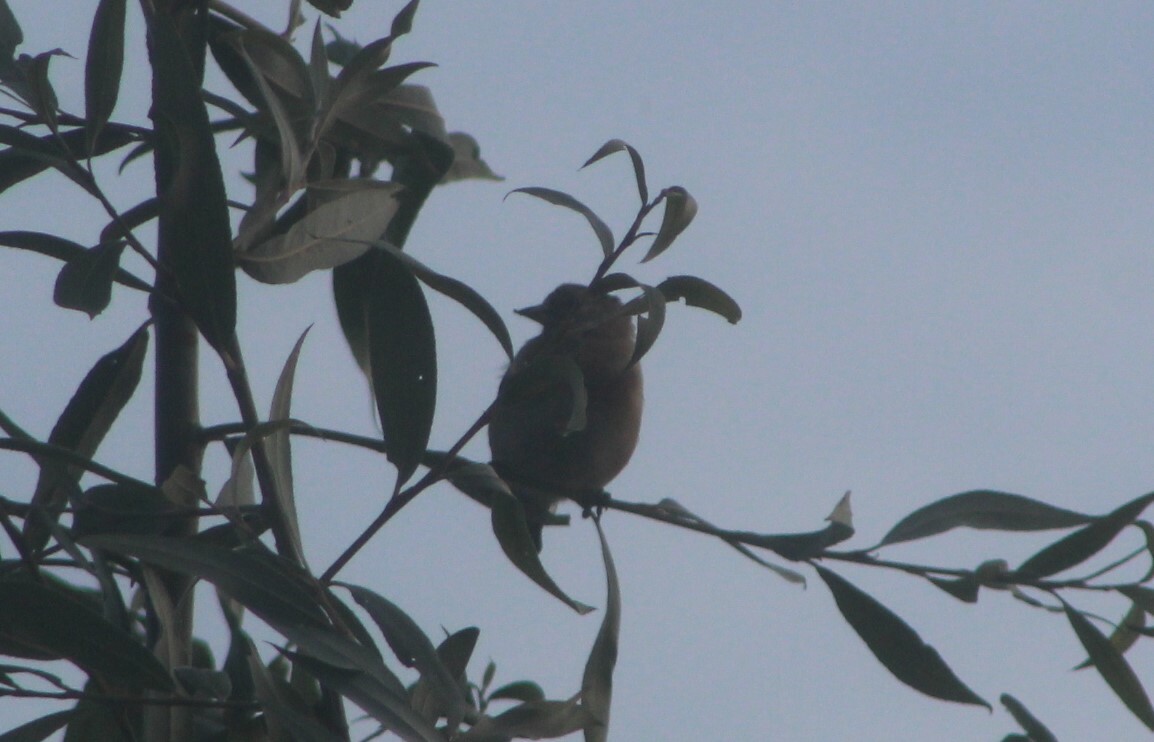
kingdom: Animalia
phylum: Chordata
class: Aves
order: Passeriformes
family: Fringillidae
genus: Carduelis
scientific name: Carduelis carduelis
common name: European goldfinch
